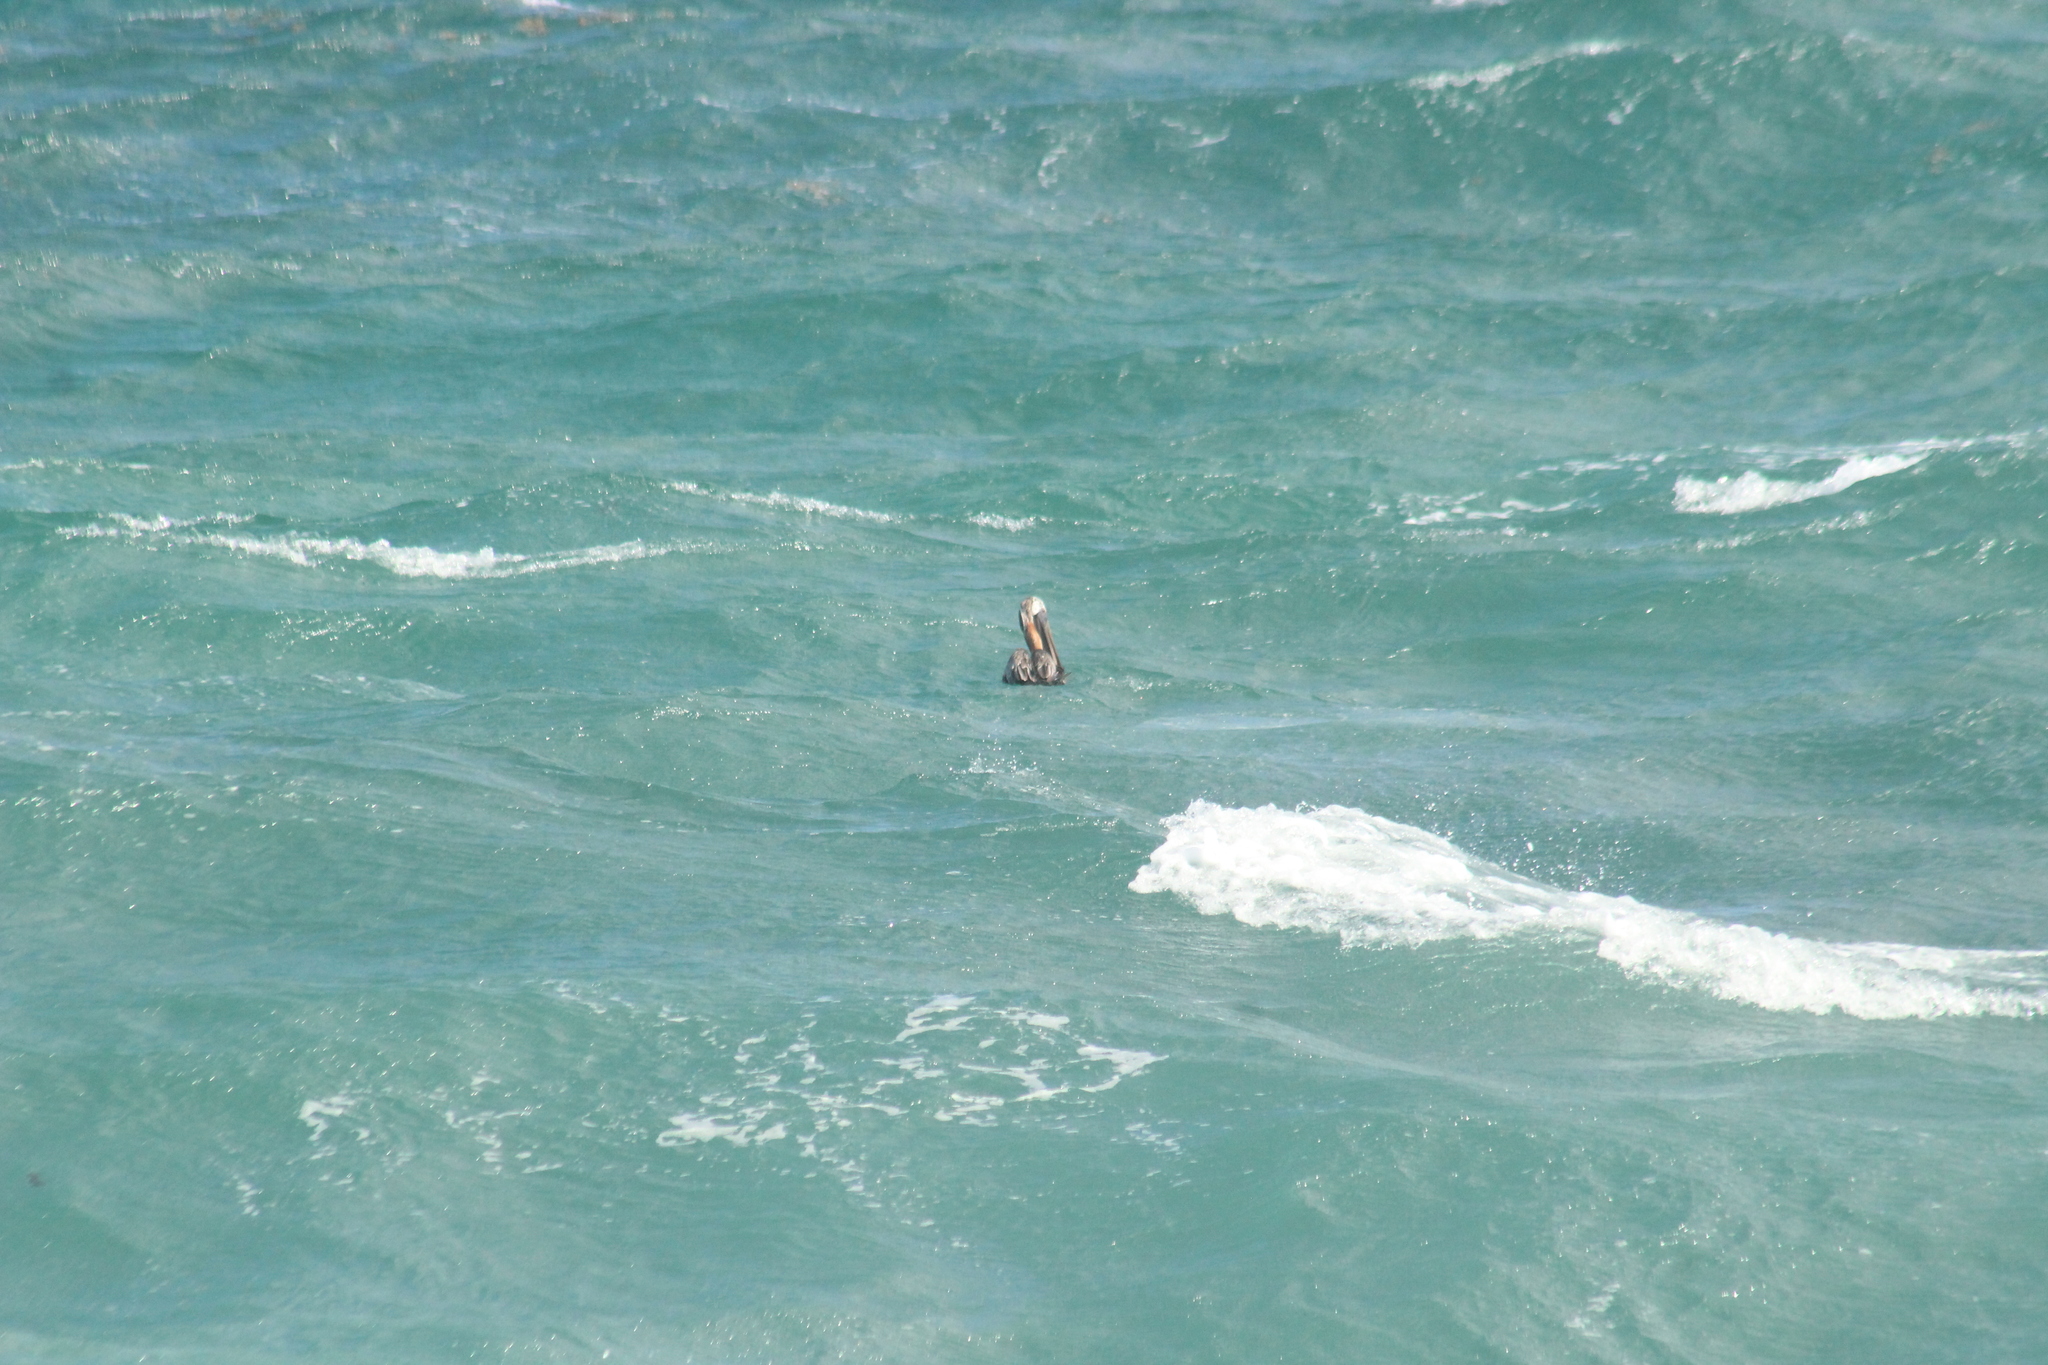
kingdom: Animalia
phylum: Chordata
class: Aves
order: Pelecaniformes
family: Pelecanidae
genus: Pelecanus
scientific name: Pelecanus occidentalis
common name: Brown pelican
